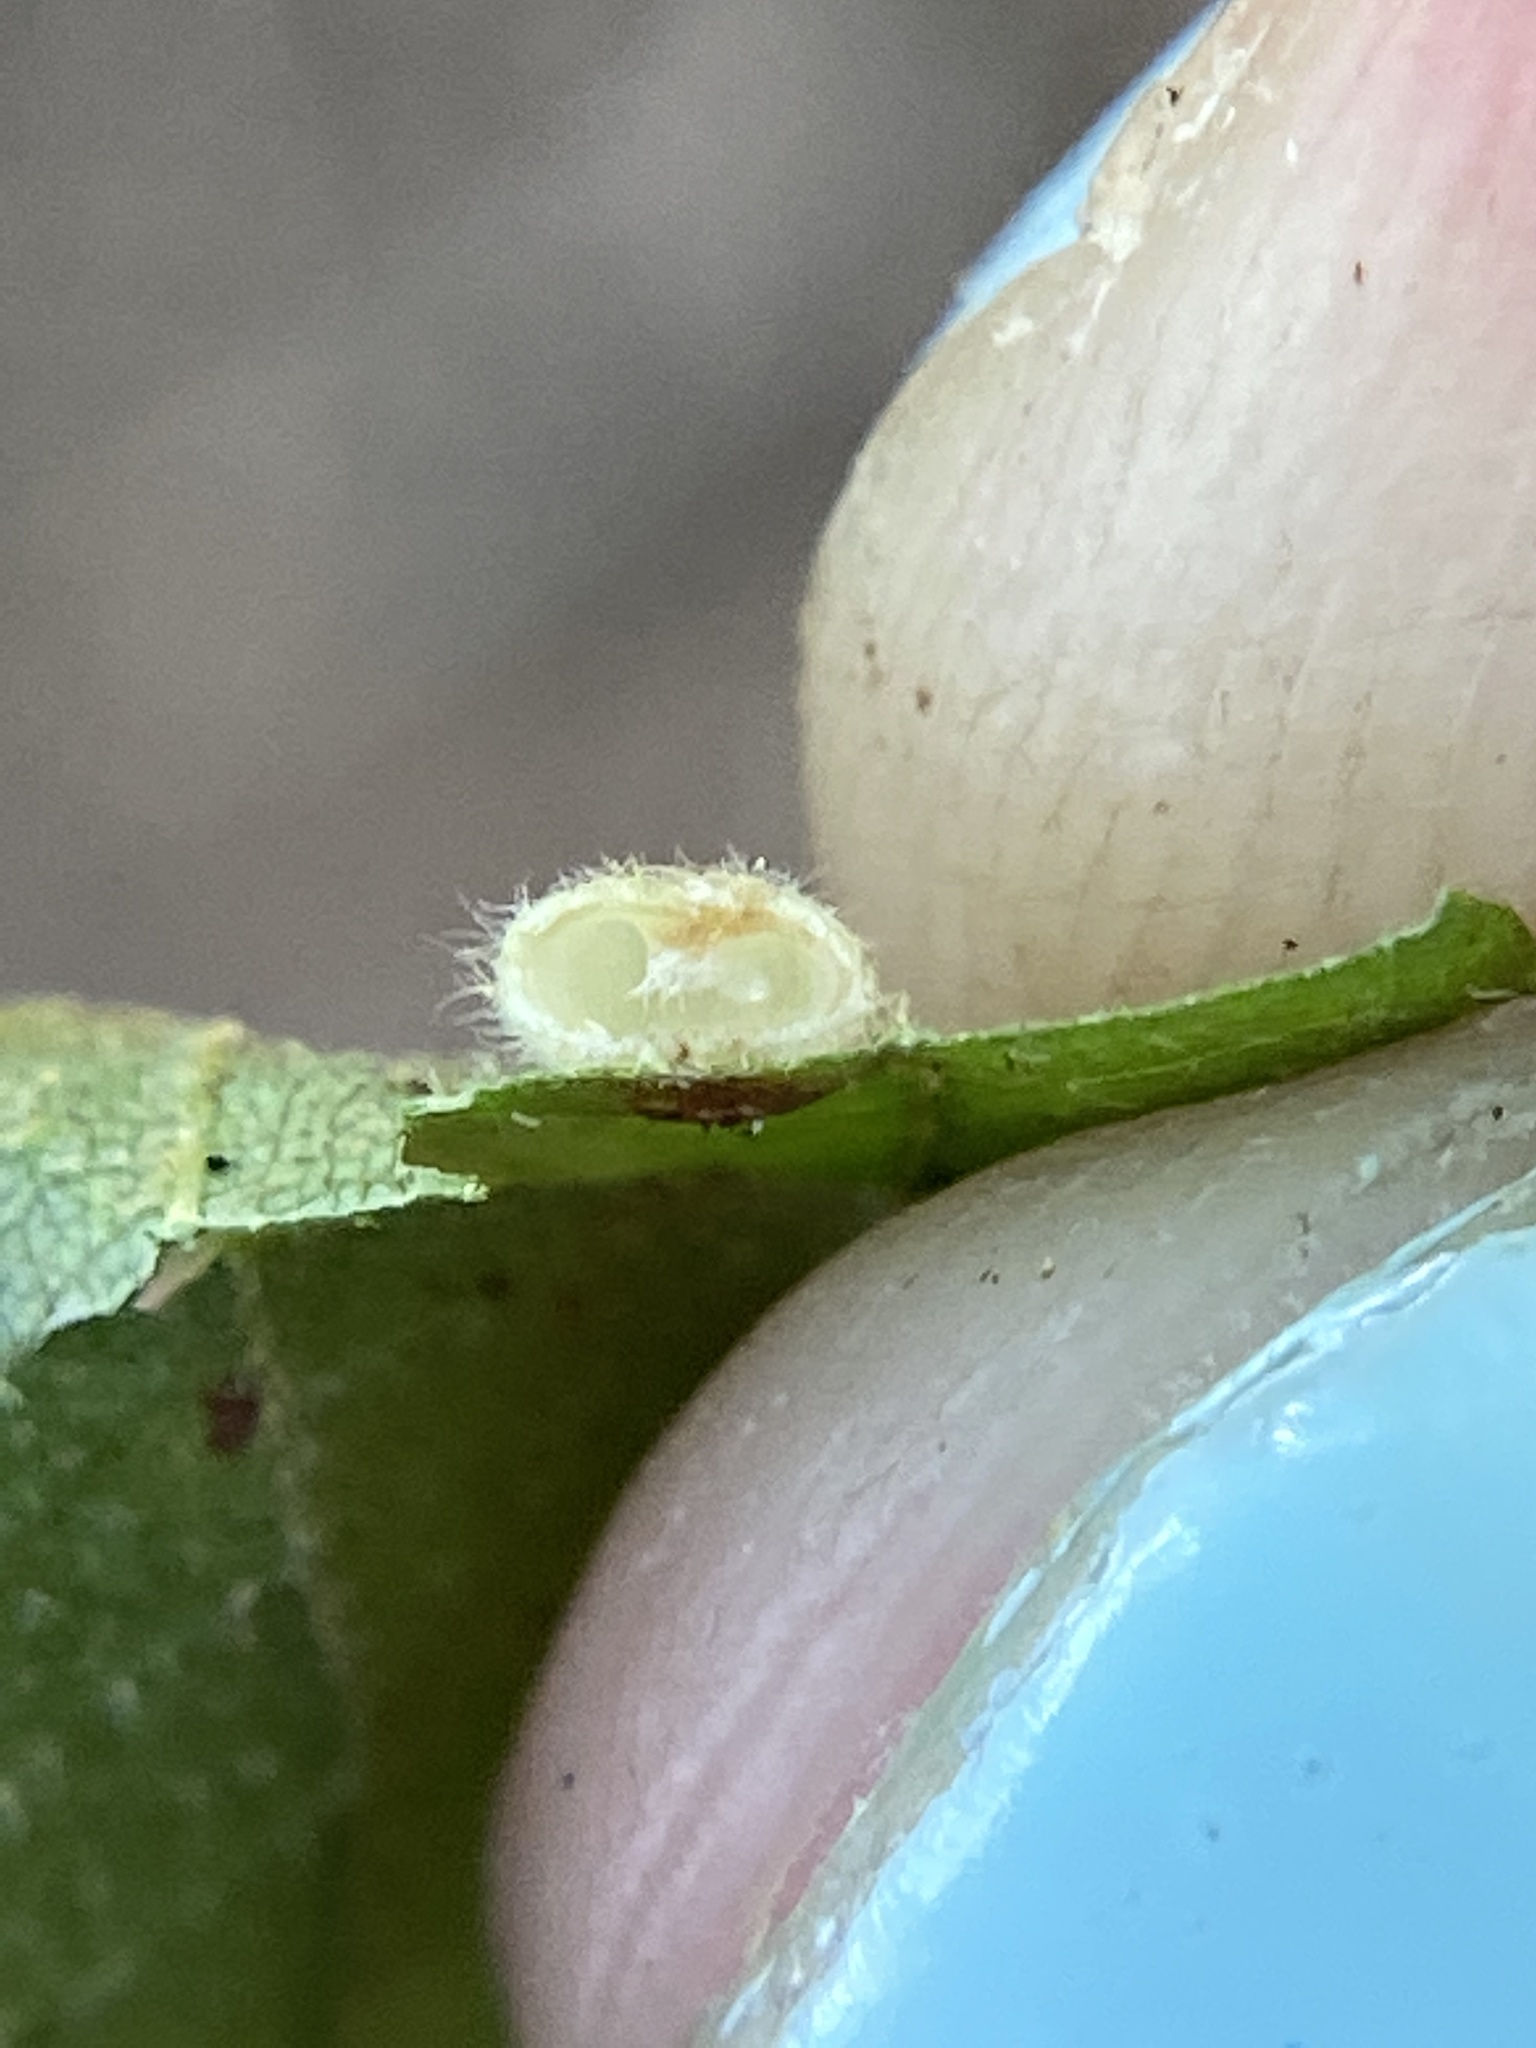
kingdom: Animalia
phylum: Arthropoda
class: Insecta
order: Diptera
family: Cecidomyiidae
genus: Caryomyia
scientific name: Caryomyia thompsoni
